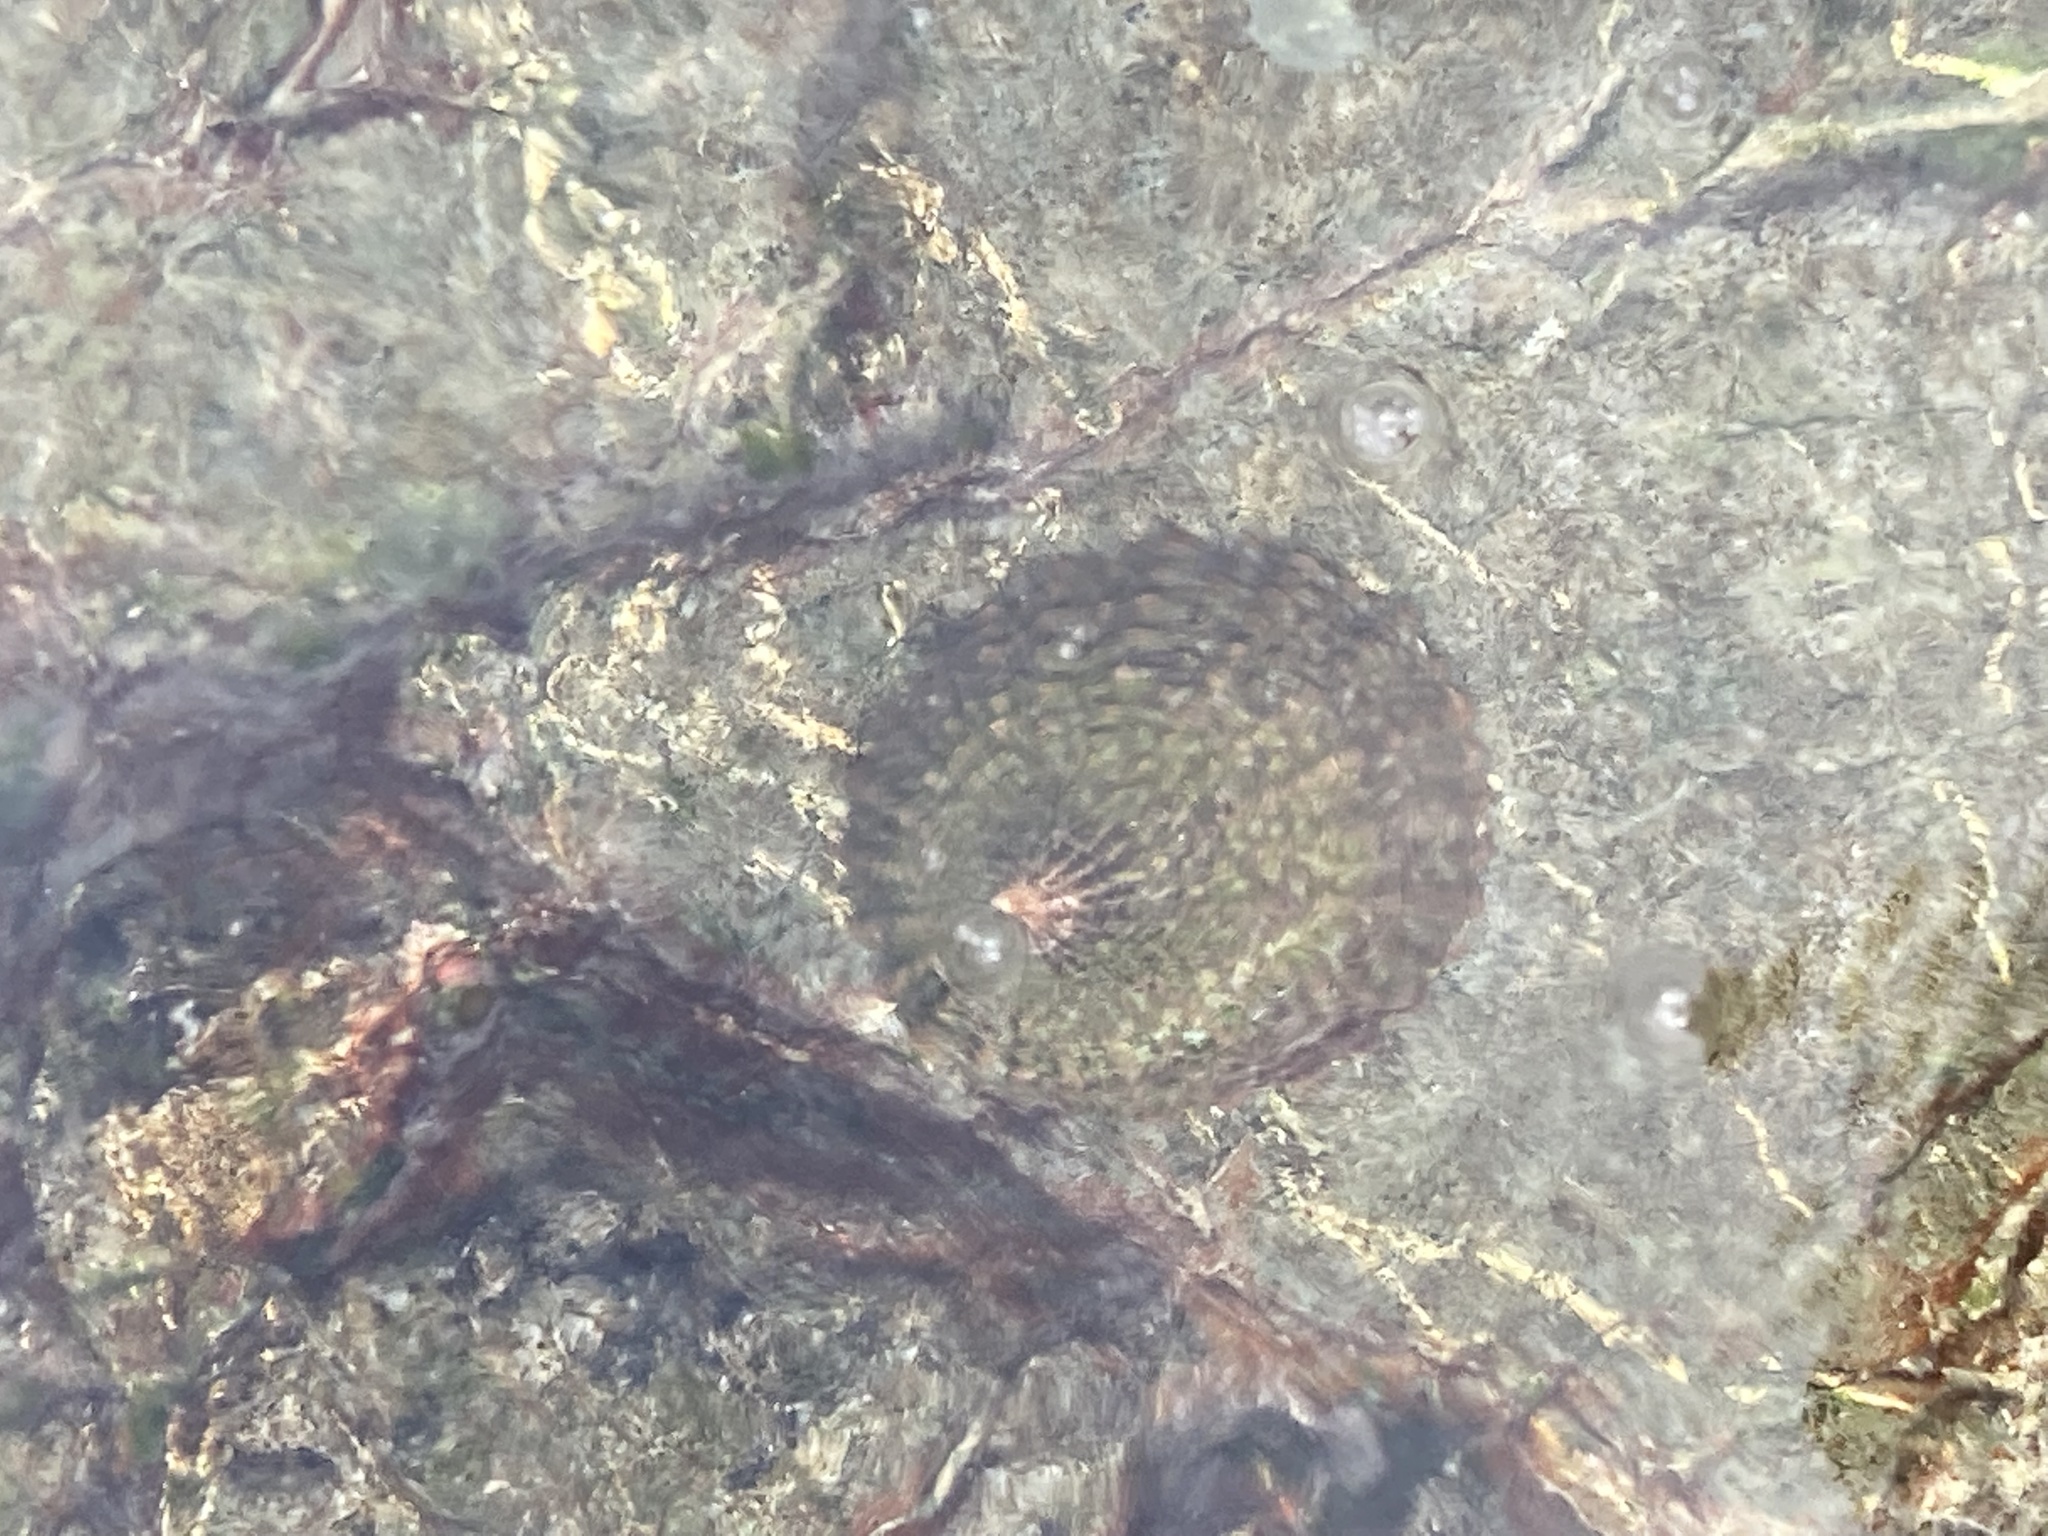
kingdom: Animalia
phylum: Mollusca
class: Gastropoda
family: Nacellidae
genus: Cellana
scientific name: Cellana denticulata
